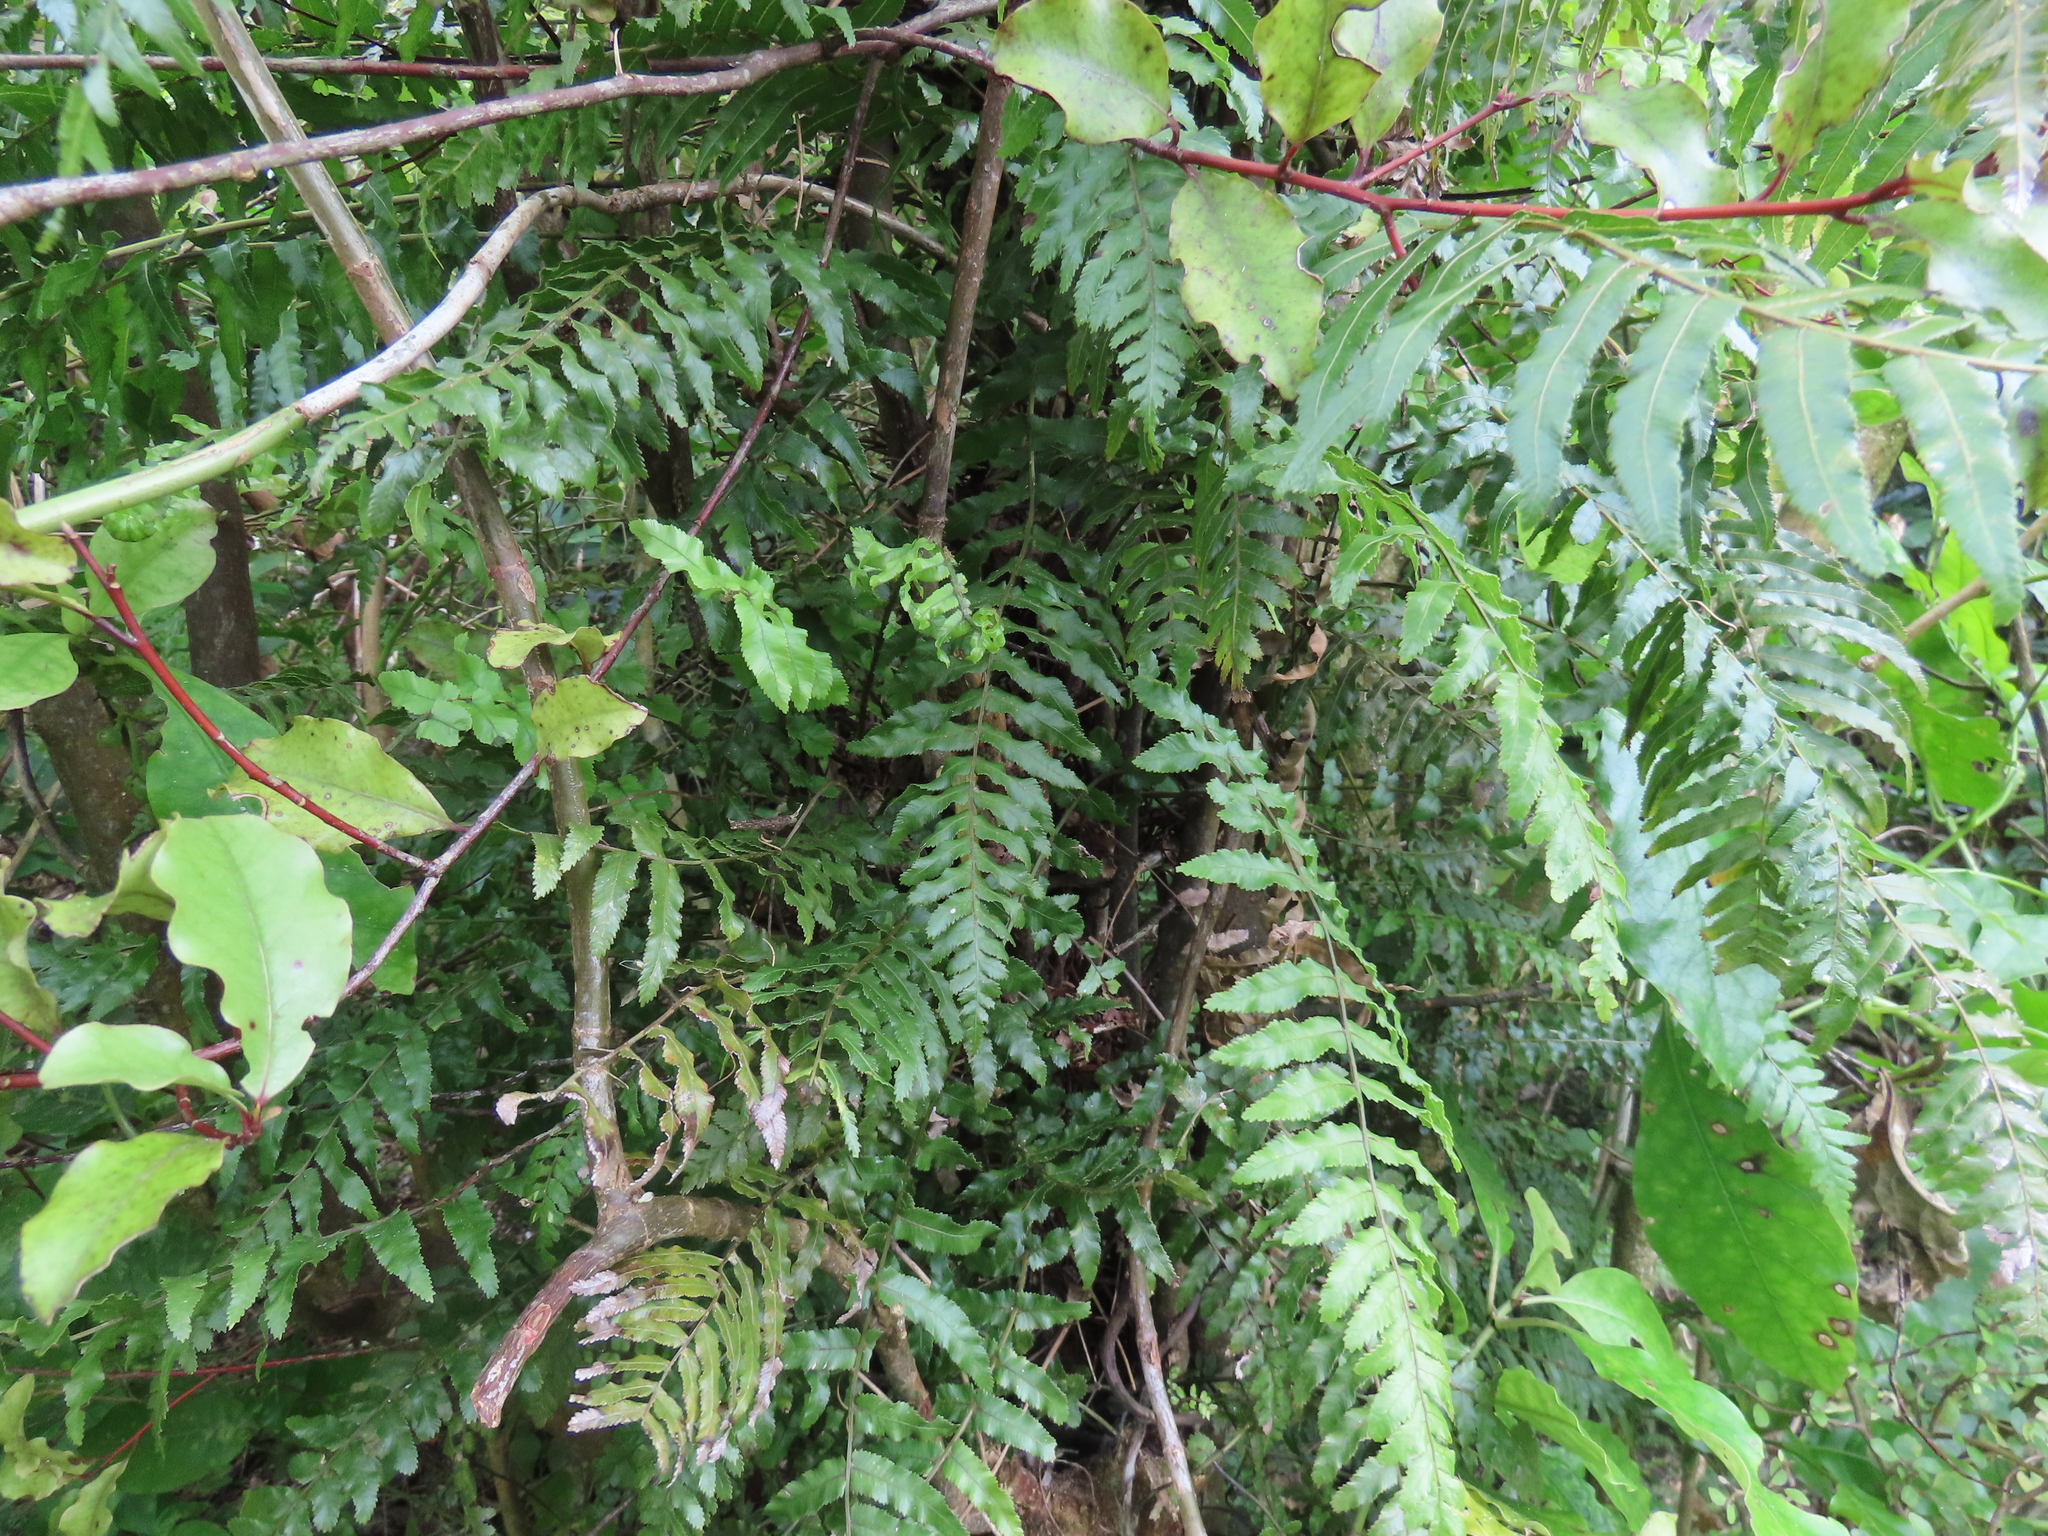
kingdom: Plantae
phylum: Tracheophyta
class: Polypodiopsida
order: Polypodiales
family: Blechnaceae
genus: Icarus
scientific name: Icarus filiformis
